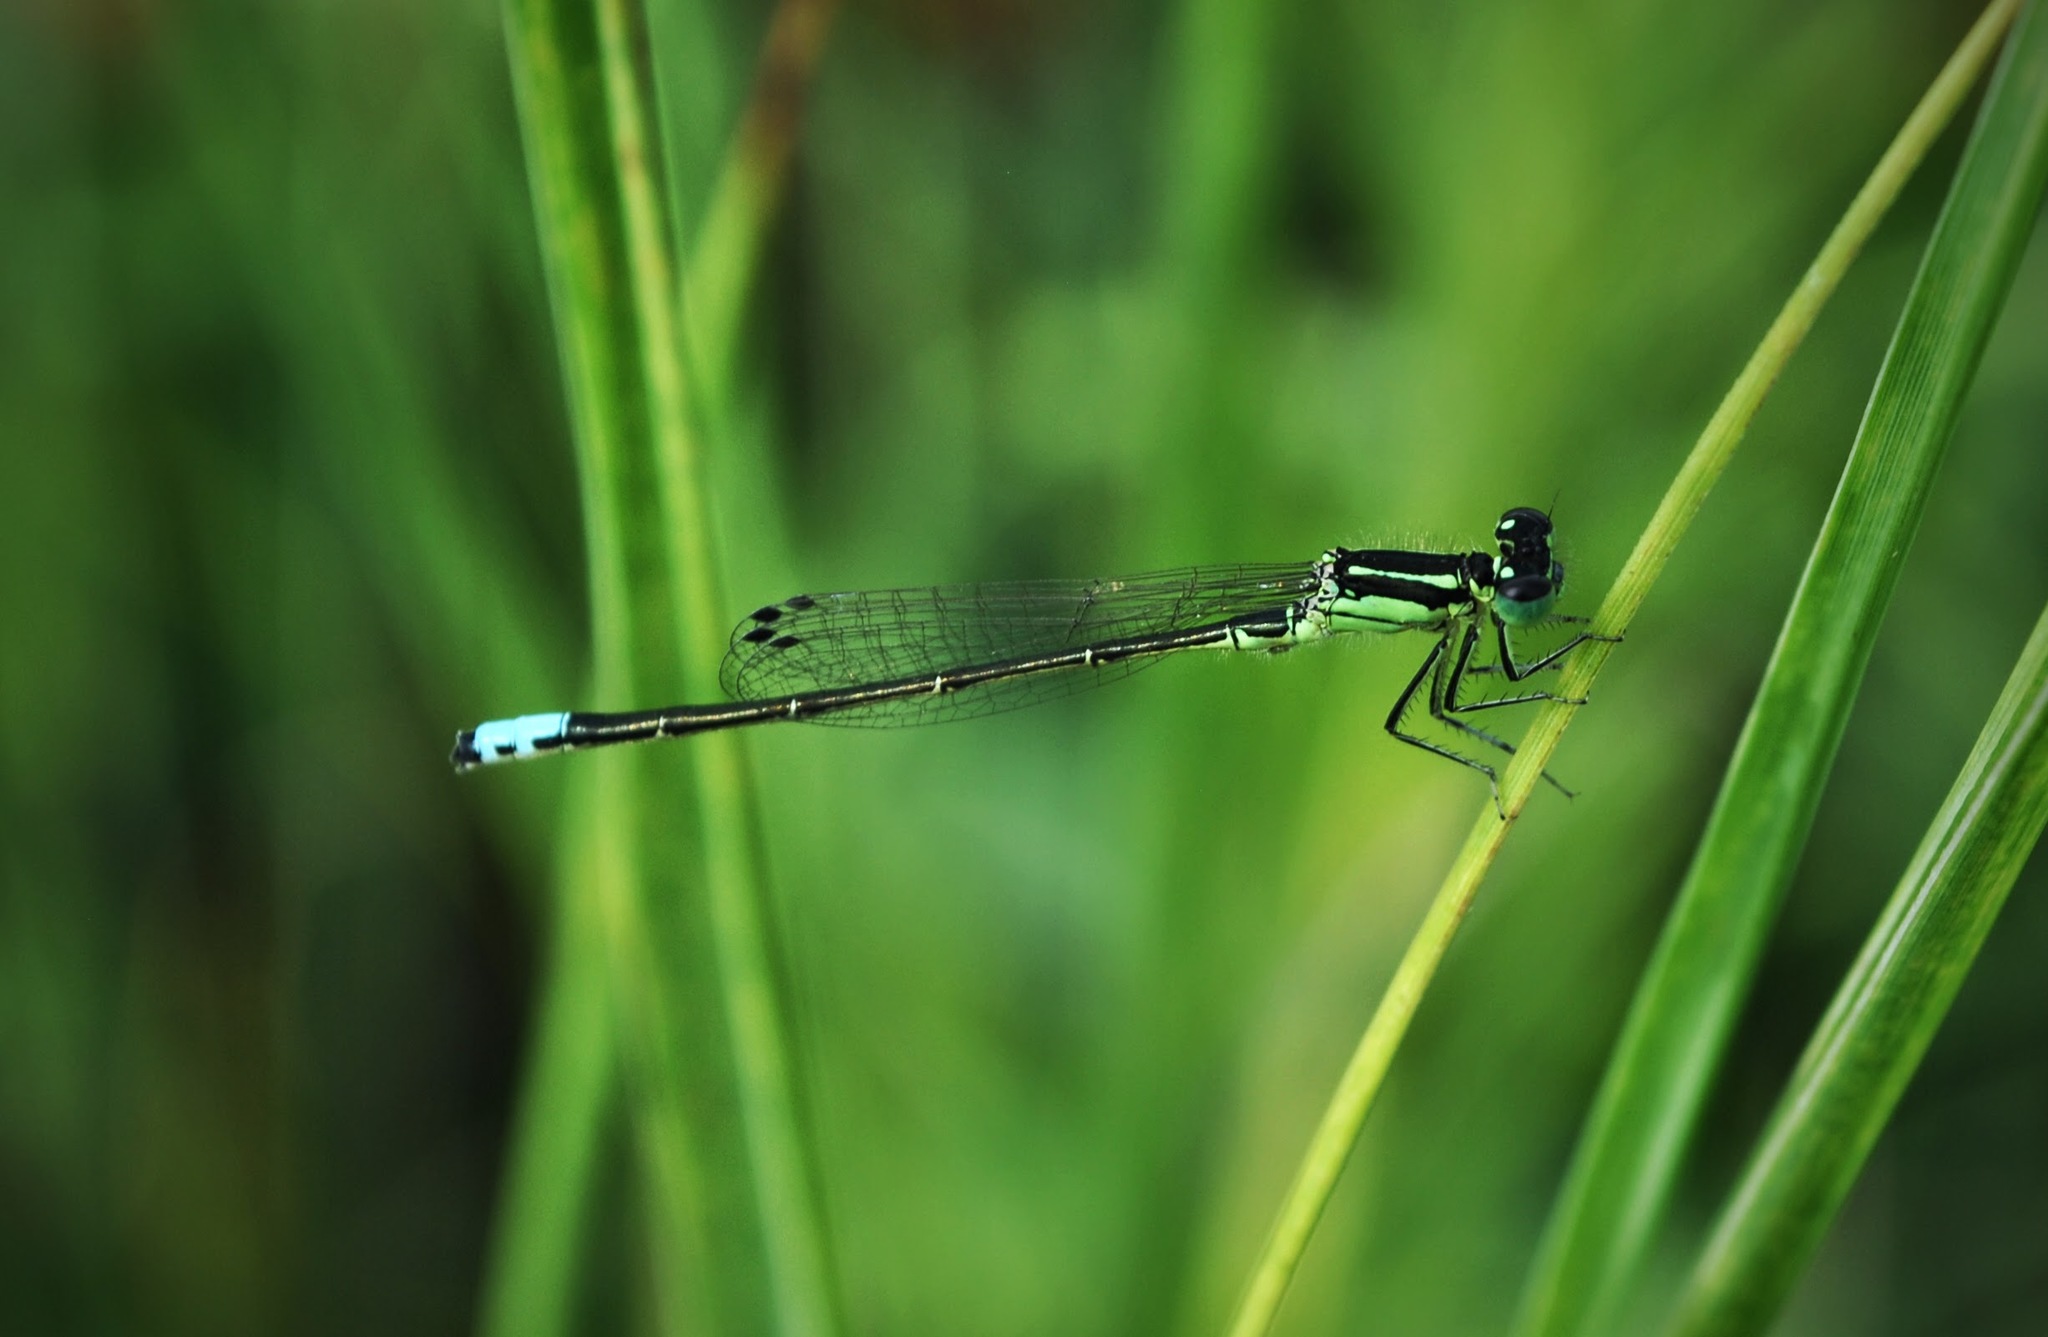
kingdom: Animalia
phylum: Arthropoda
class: Insecta
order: Odonata
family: Coenagrionidae
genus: Ischnura
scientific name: Ischnura verticalis
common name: Eastern forktail
